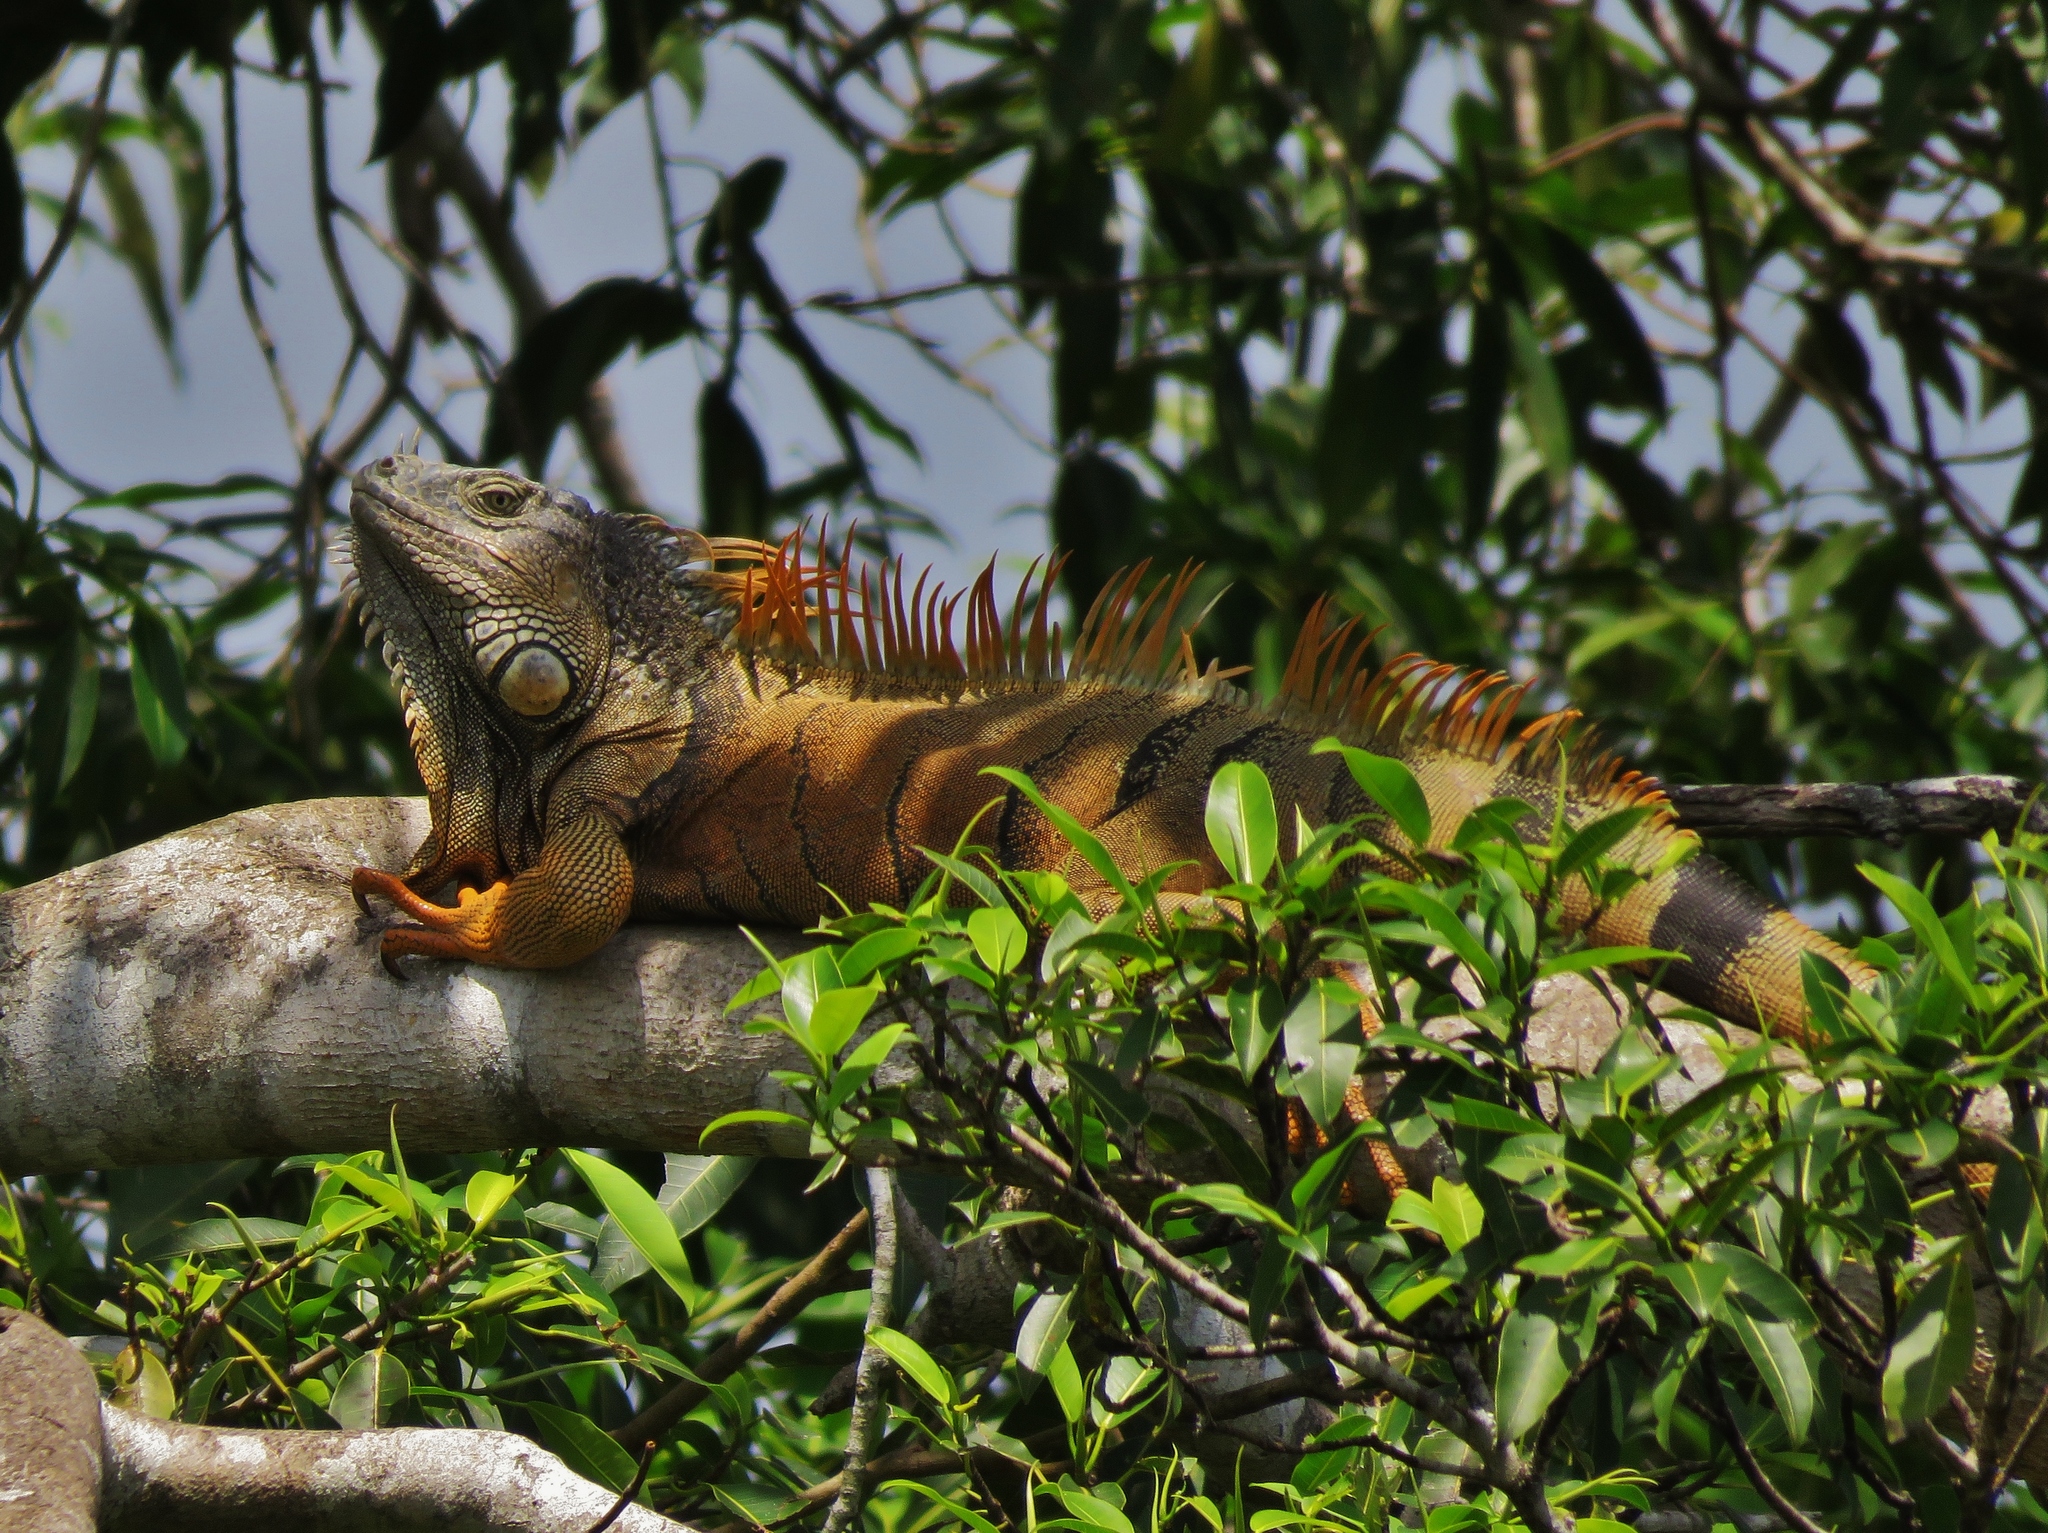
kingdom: Animalia
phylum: Chordata
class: Squamata
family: Iguanidae
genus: Iguana
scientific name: Iguana iguana
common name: Green iguana
